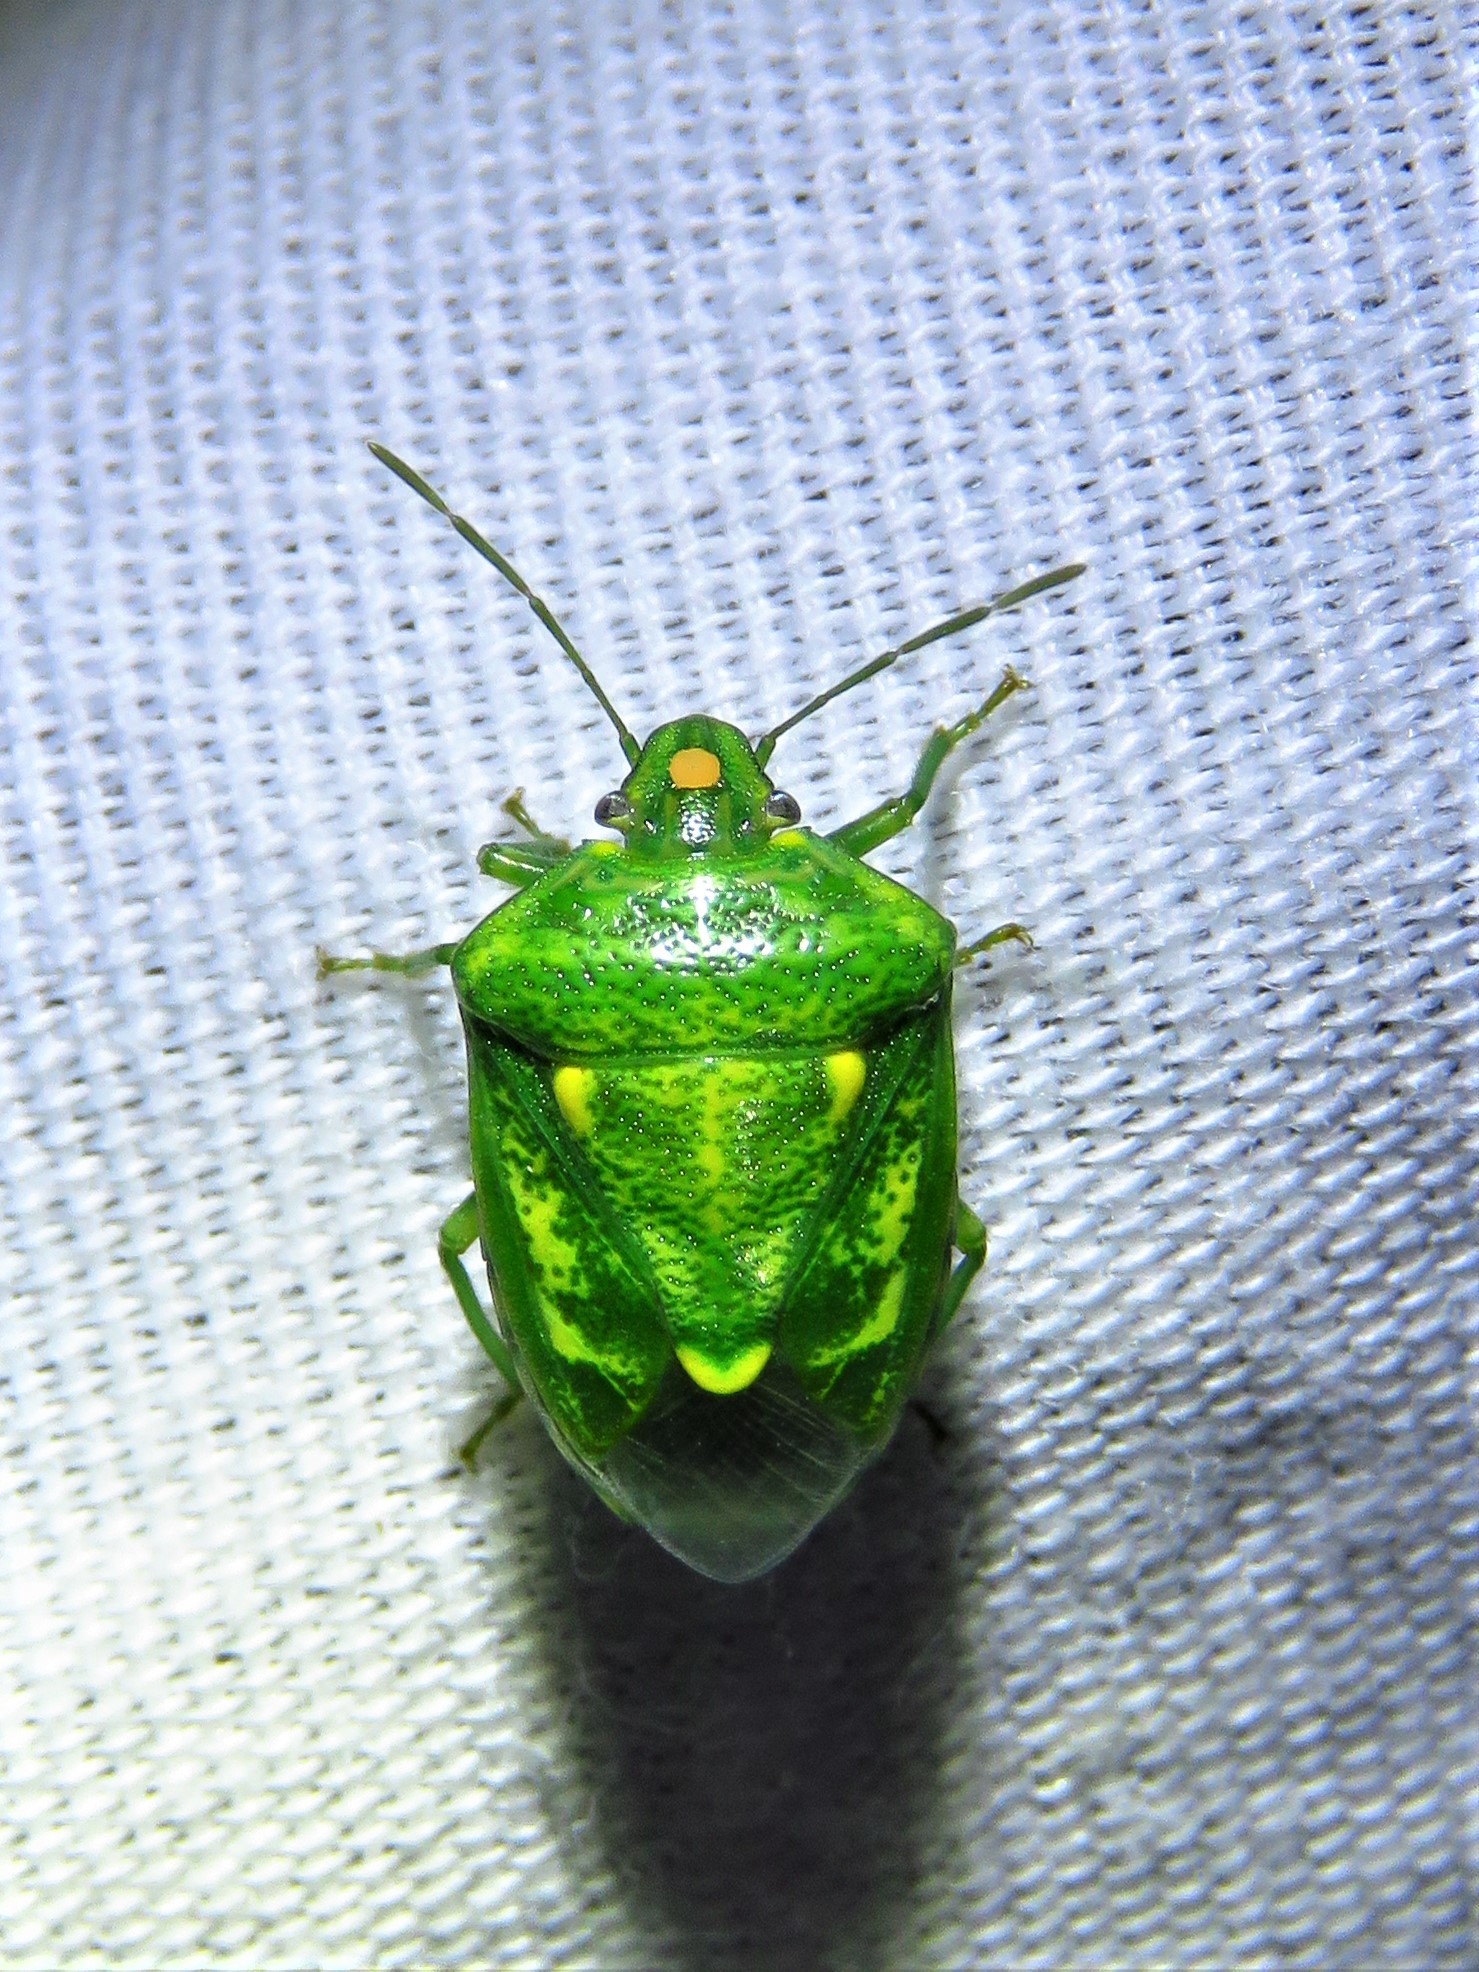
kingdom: Animalia
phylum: Arthropoda
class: Insecta
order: Hemiptera
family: Pentatomidae
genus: Banasa
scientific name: Banasa euchlora
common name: Cedar berry bug
